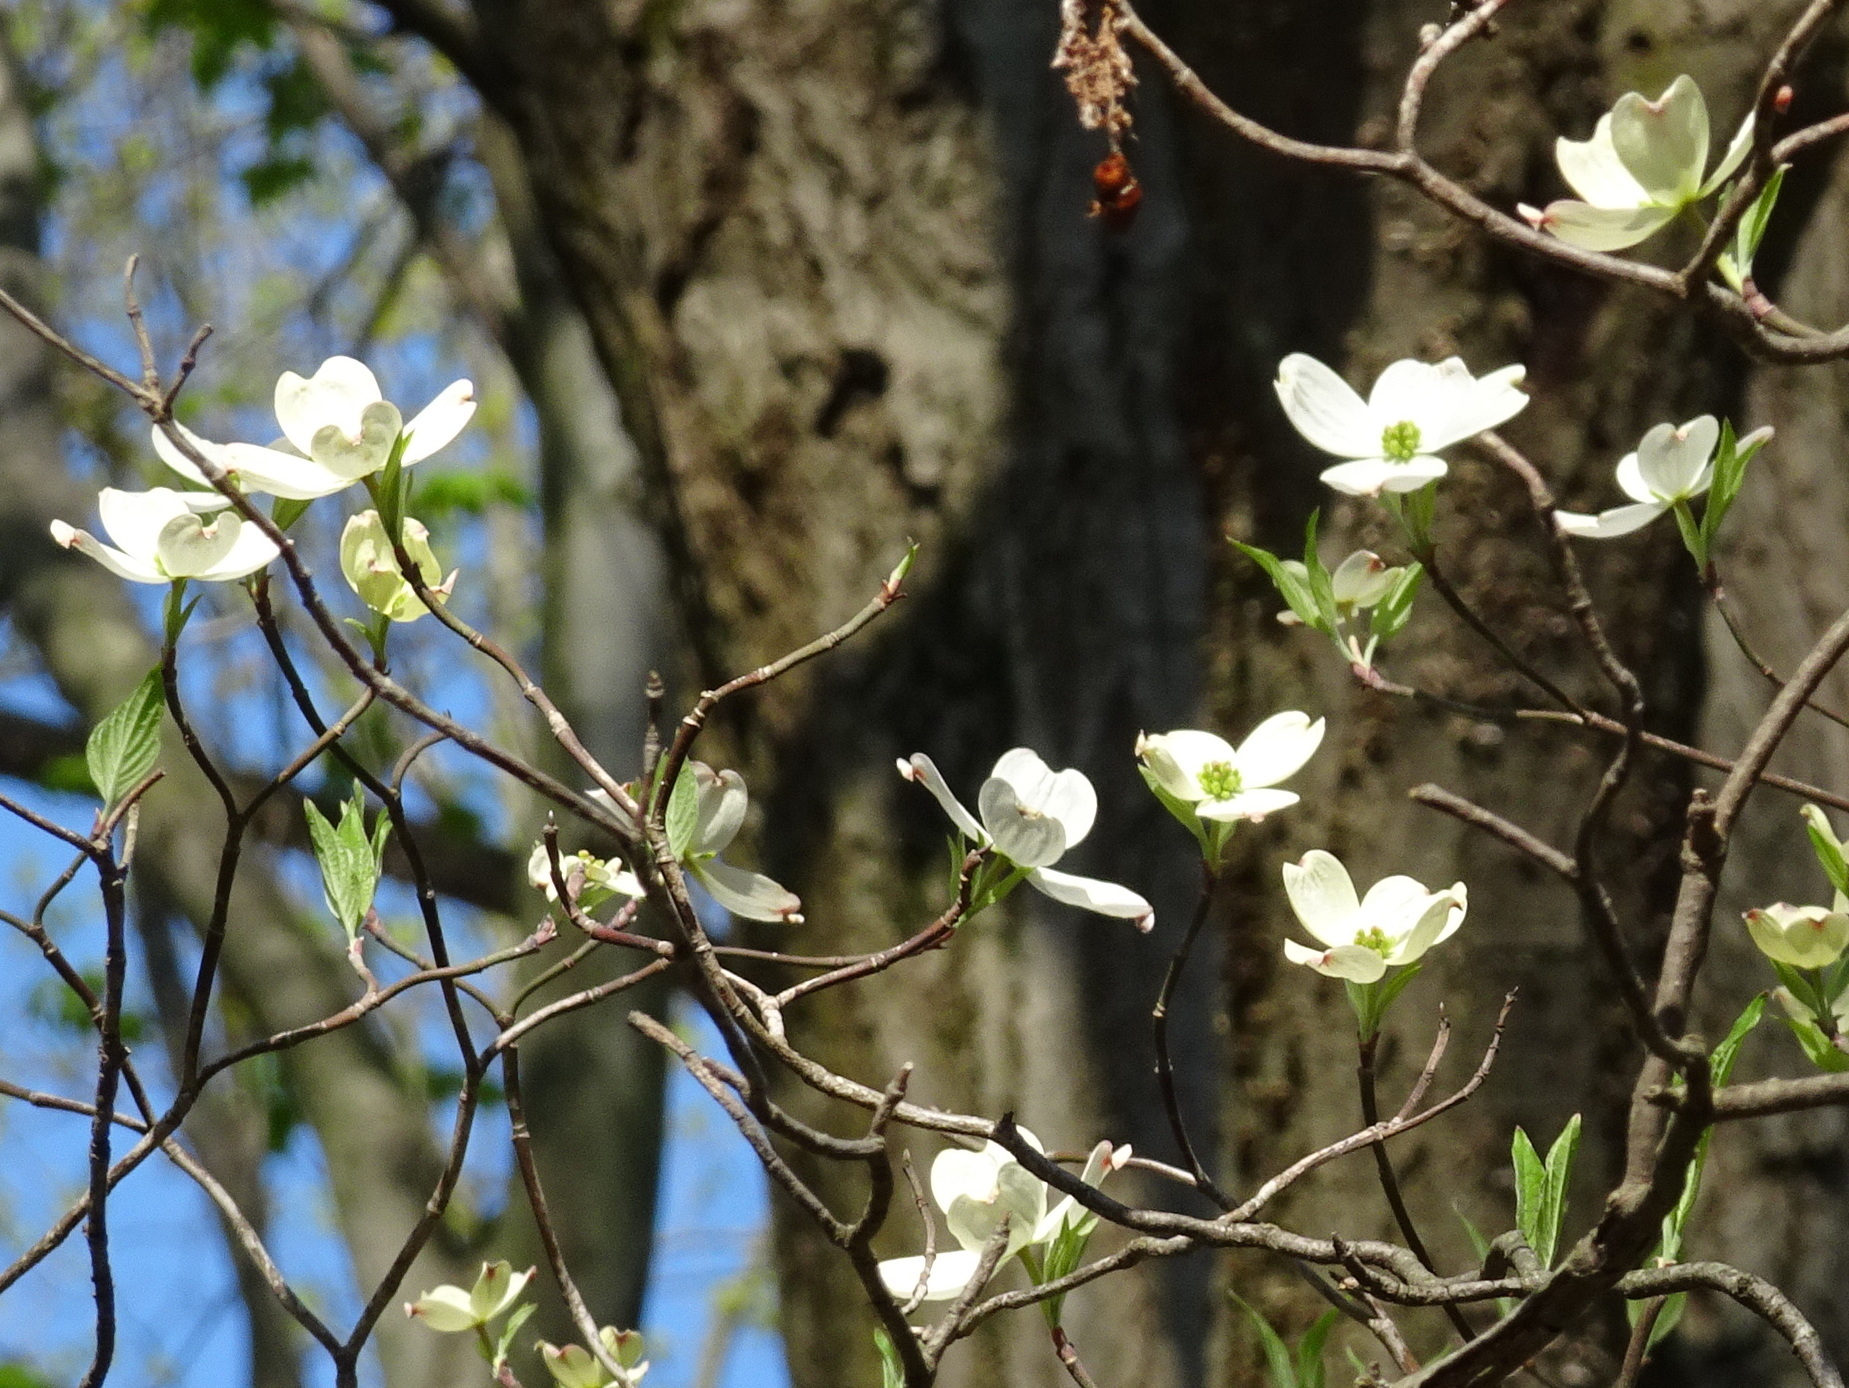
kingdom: Plantae
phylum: Tracheophyta
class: Magnoliopsida
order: Cornales
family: Cornaceae
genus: Cornus
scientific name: Cornus florida
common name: Flowering dogwood
